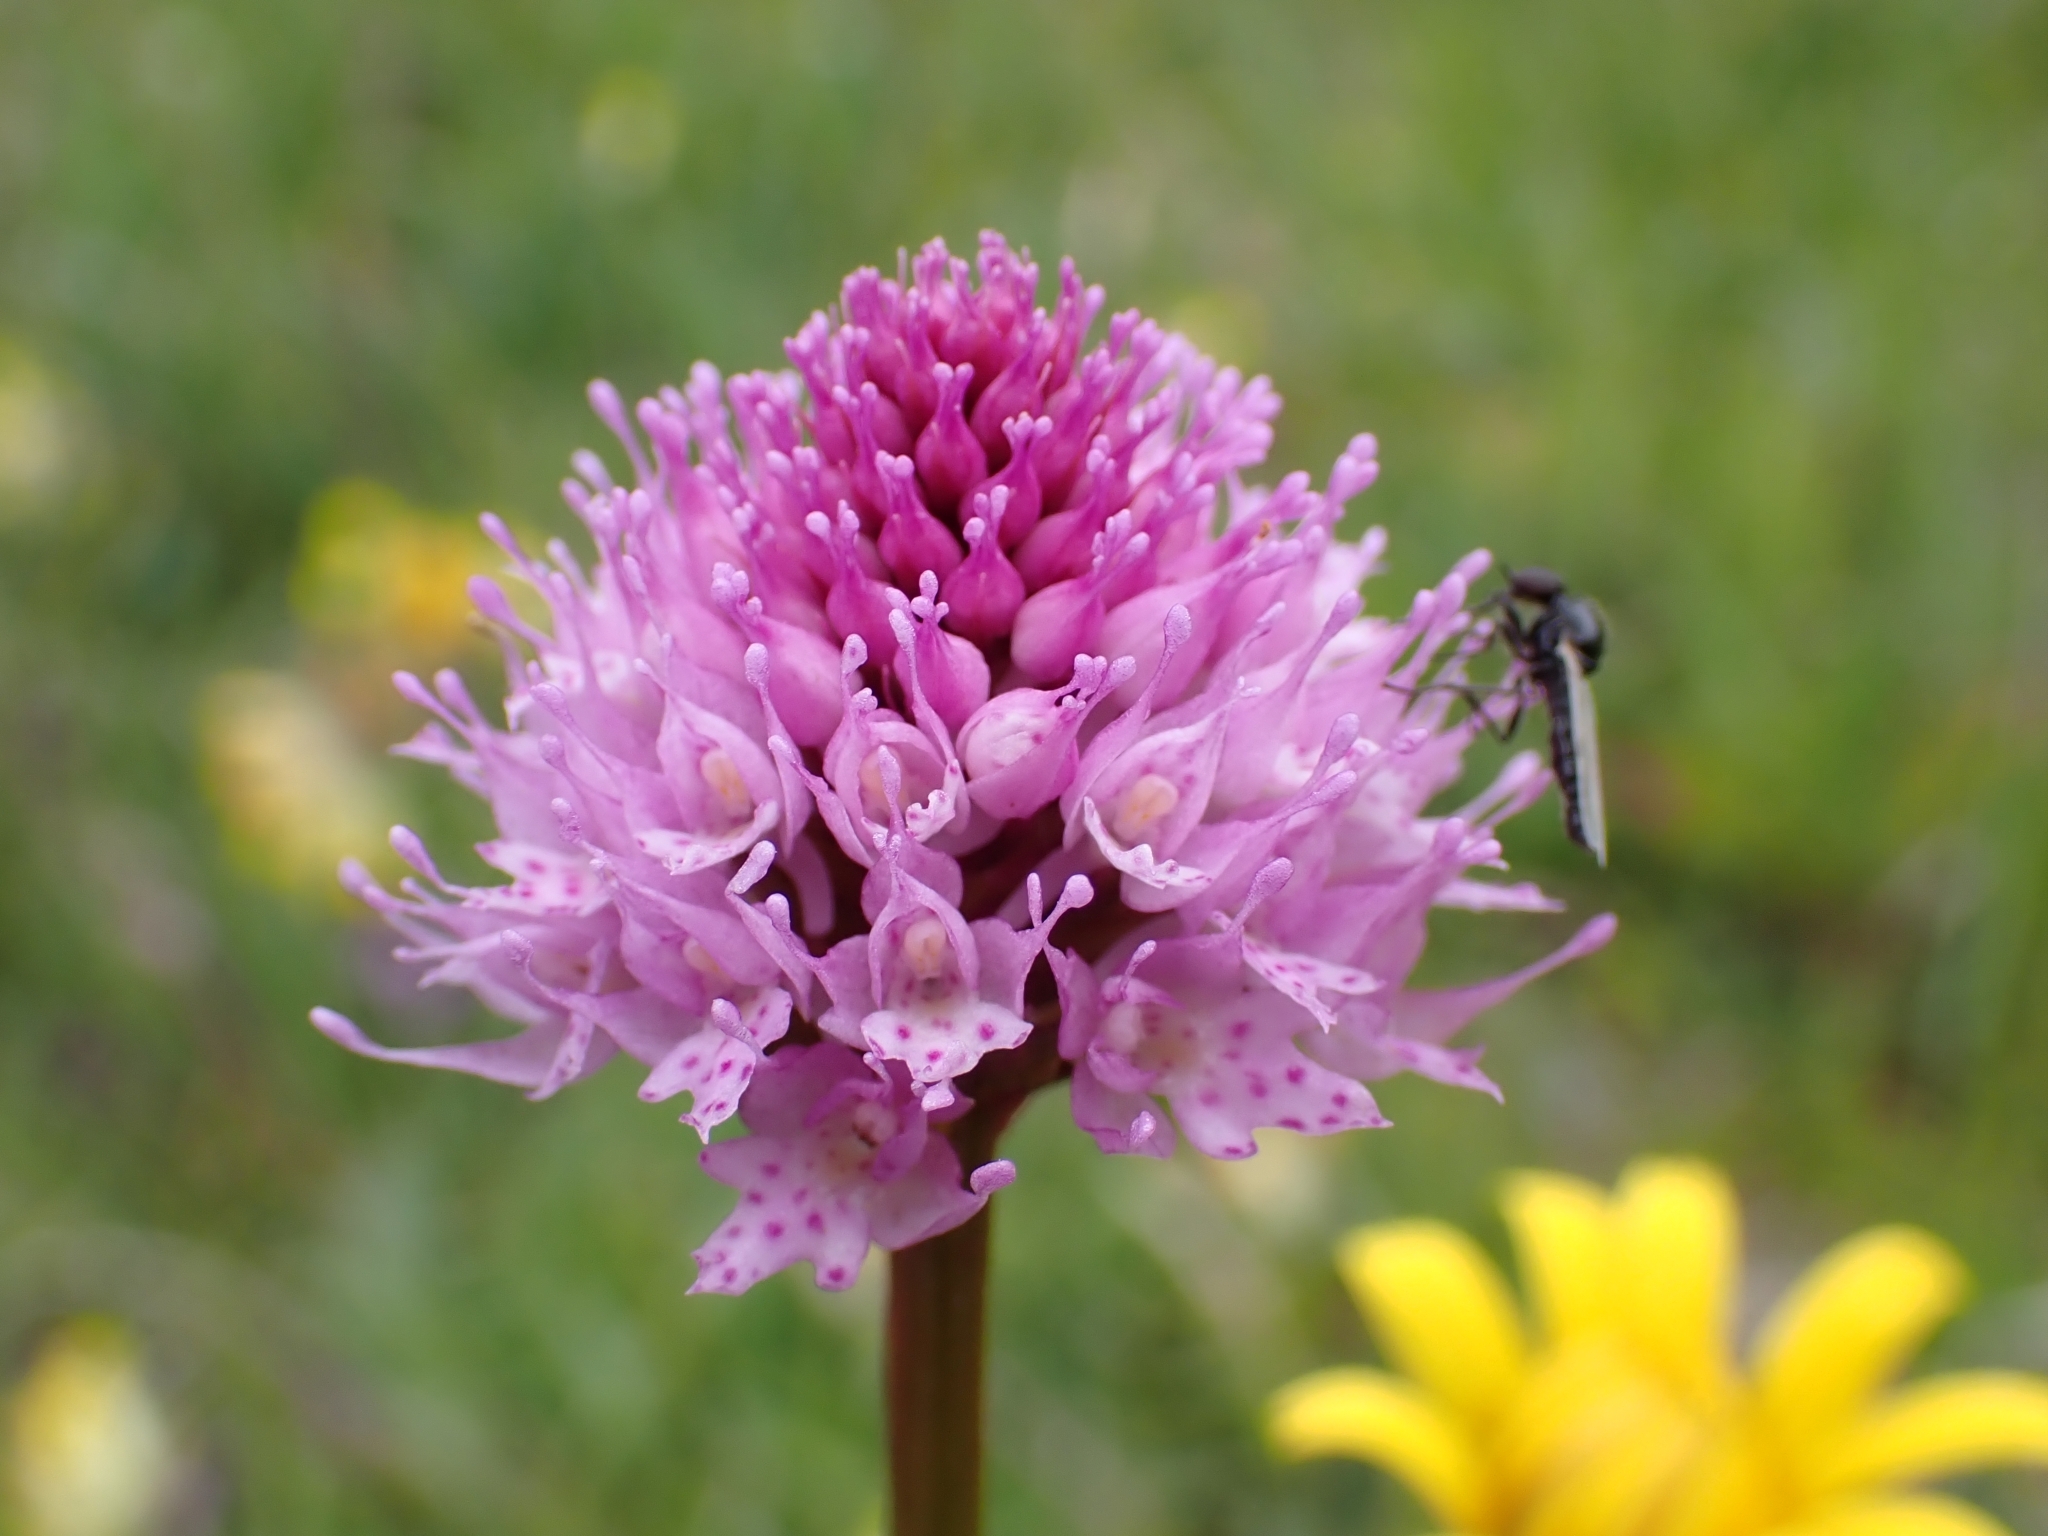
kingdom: Plantae
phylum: Tracheophyta
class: Liliopsida
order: Asparagales
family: Orchidaceae
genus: Traunsteinera
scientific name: Traunsteinera globosa
